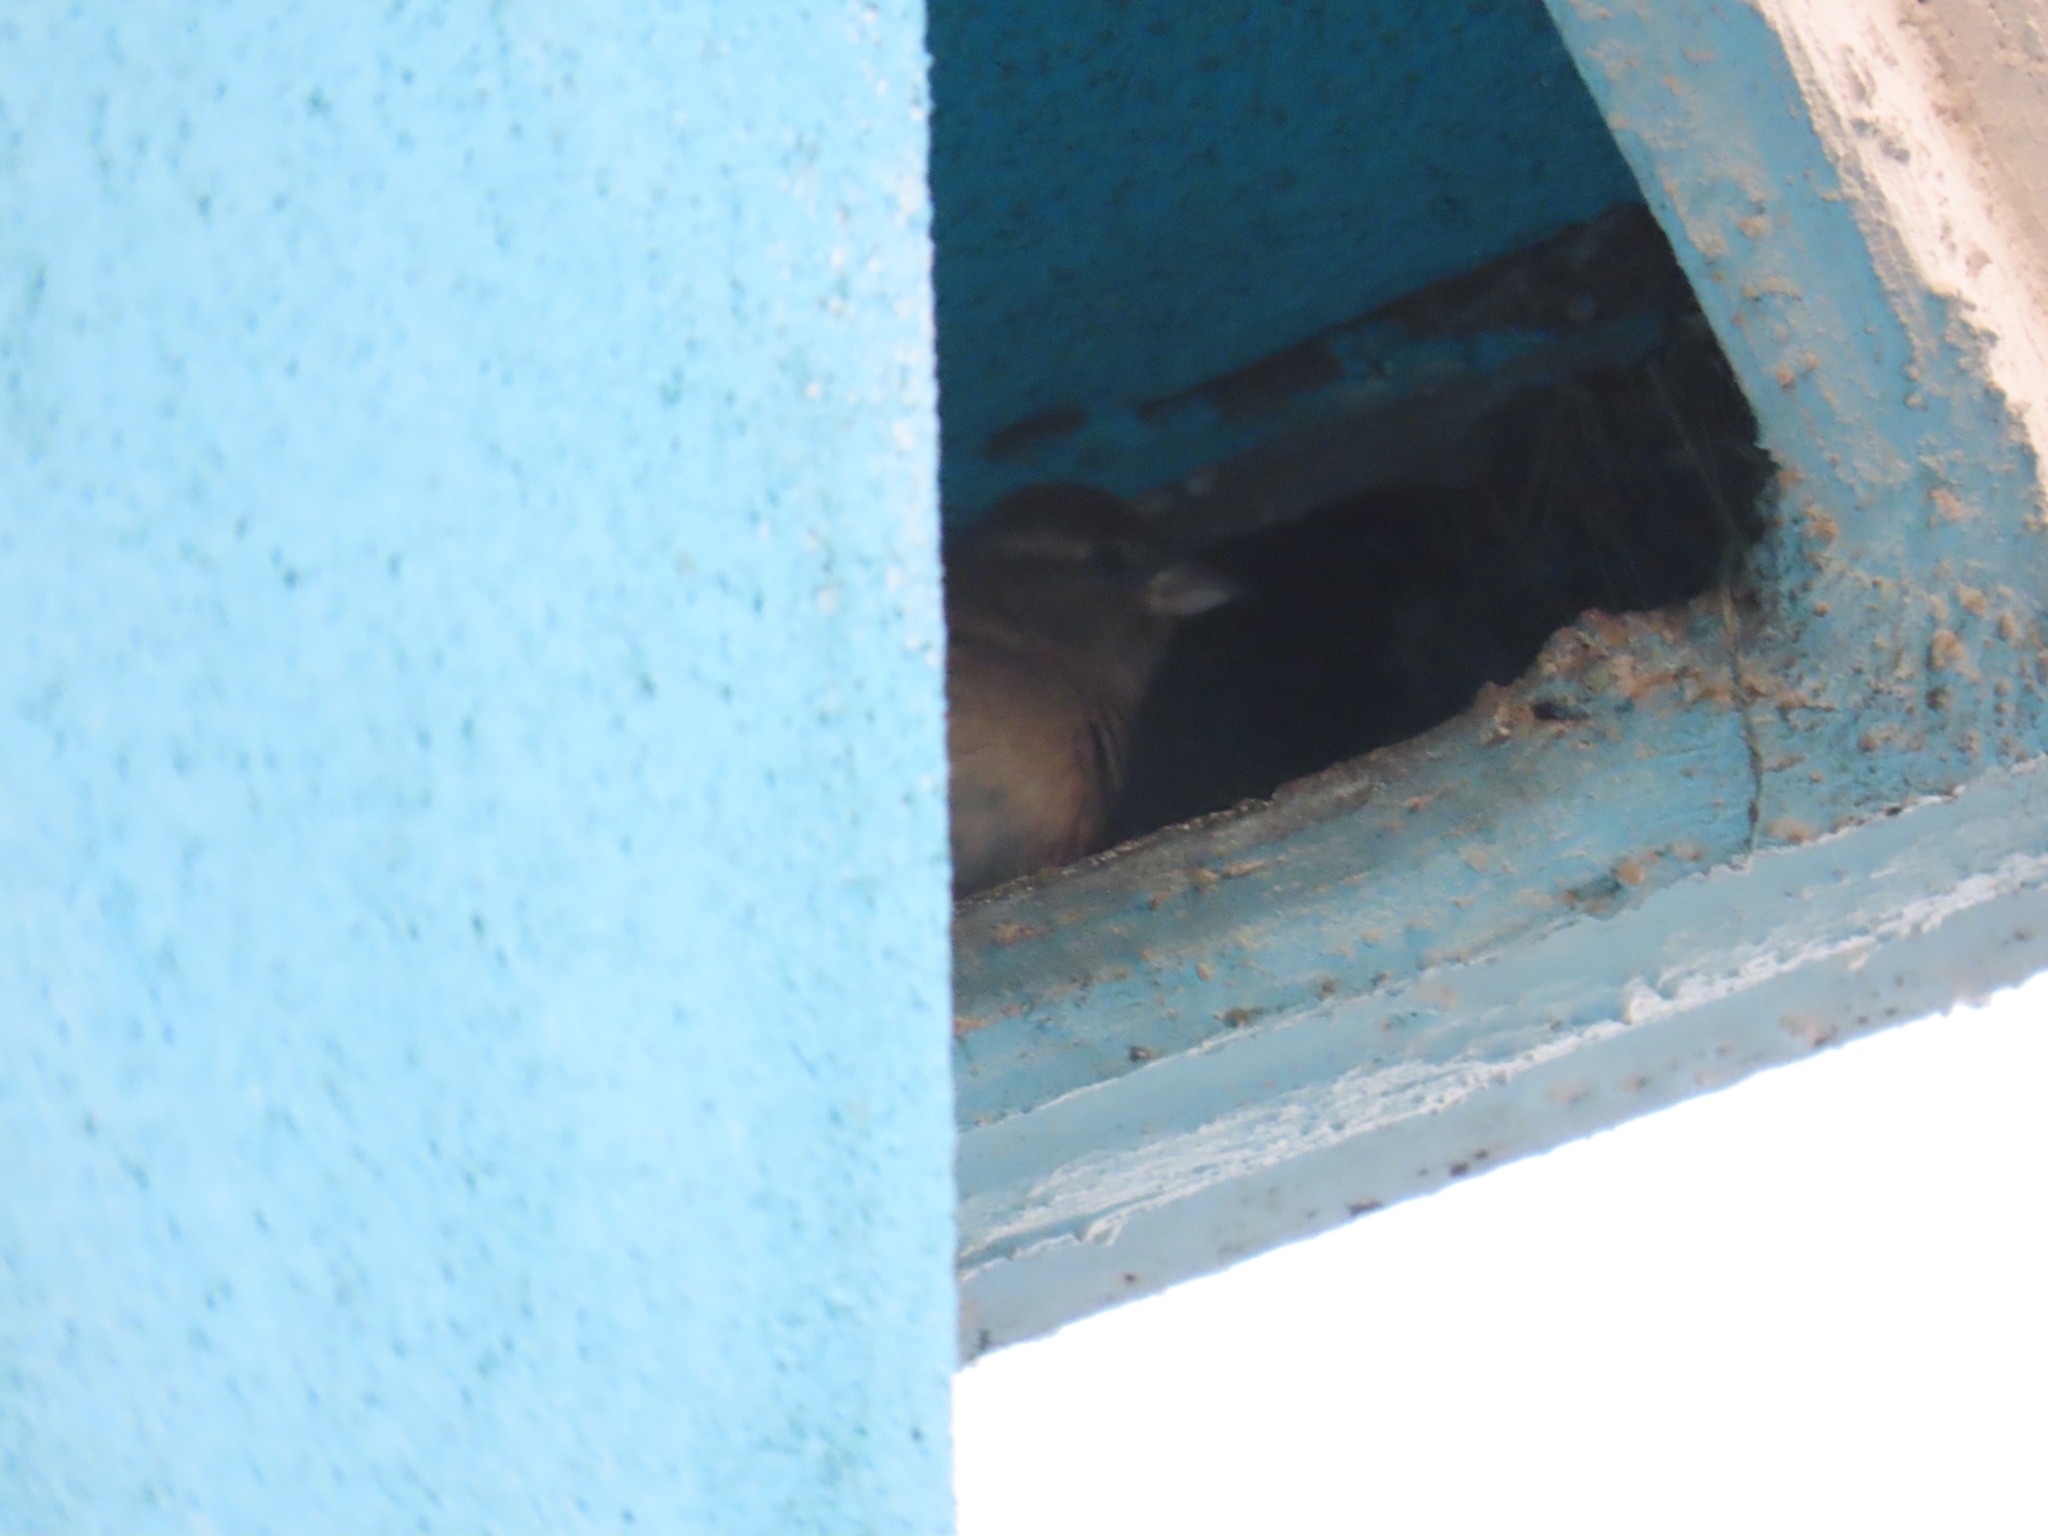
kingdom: Animalia
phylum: Chordata
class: Aves
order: Passeriformes
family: Passeridae
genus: Passer
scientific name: Passer domesticus
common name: House sparrow
